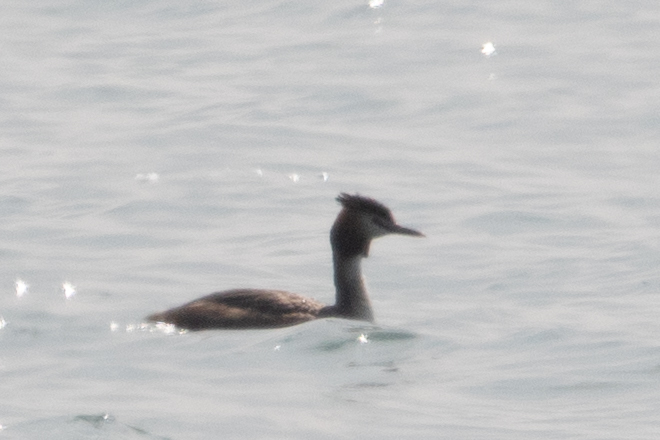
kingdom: Animalia
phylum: Chordata
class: Aves
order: Podicipediformes
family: Podicipedidae
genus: Podiceps
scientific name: Podiceps cristatus
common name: Great crested grebe
